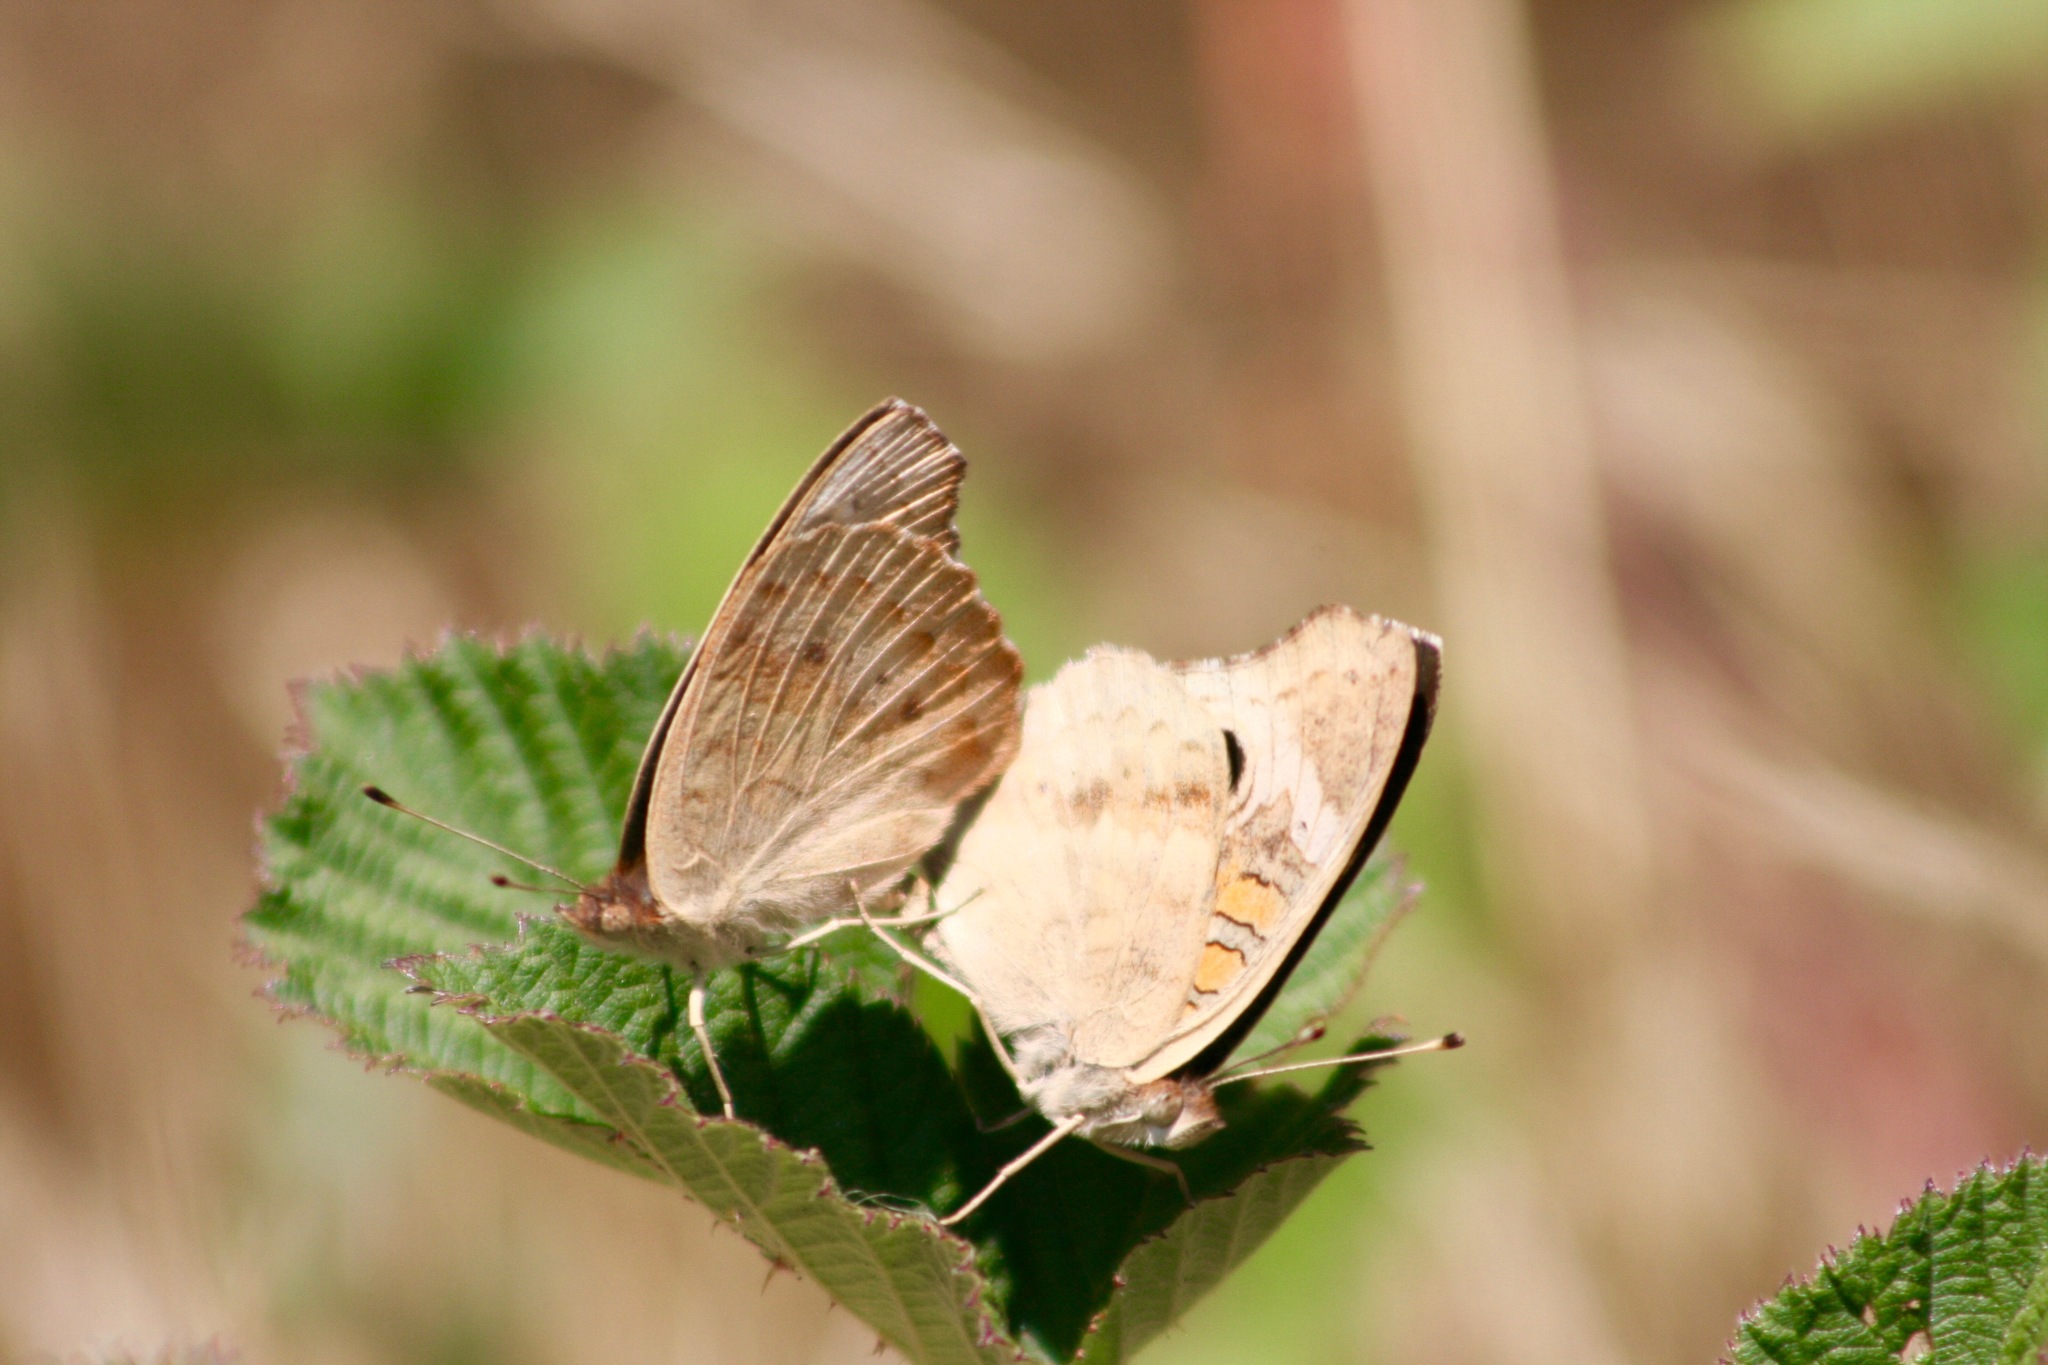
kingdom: Animalia
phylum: Arthropoda
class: Insecta
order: Lepidoptera
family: Nymphalidae
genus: Junonia
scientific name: Junonia grisea
